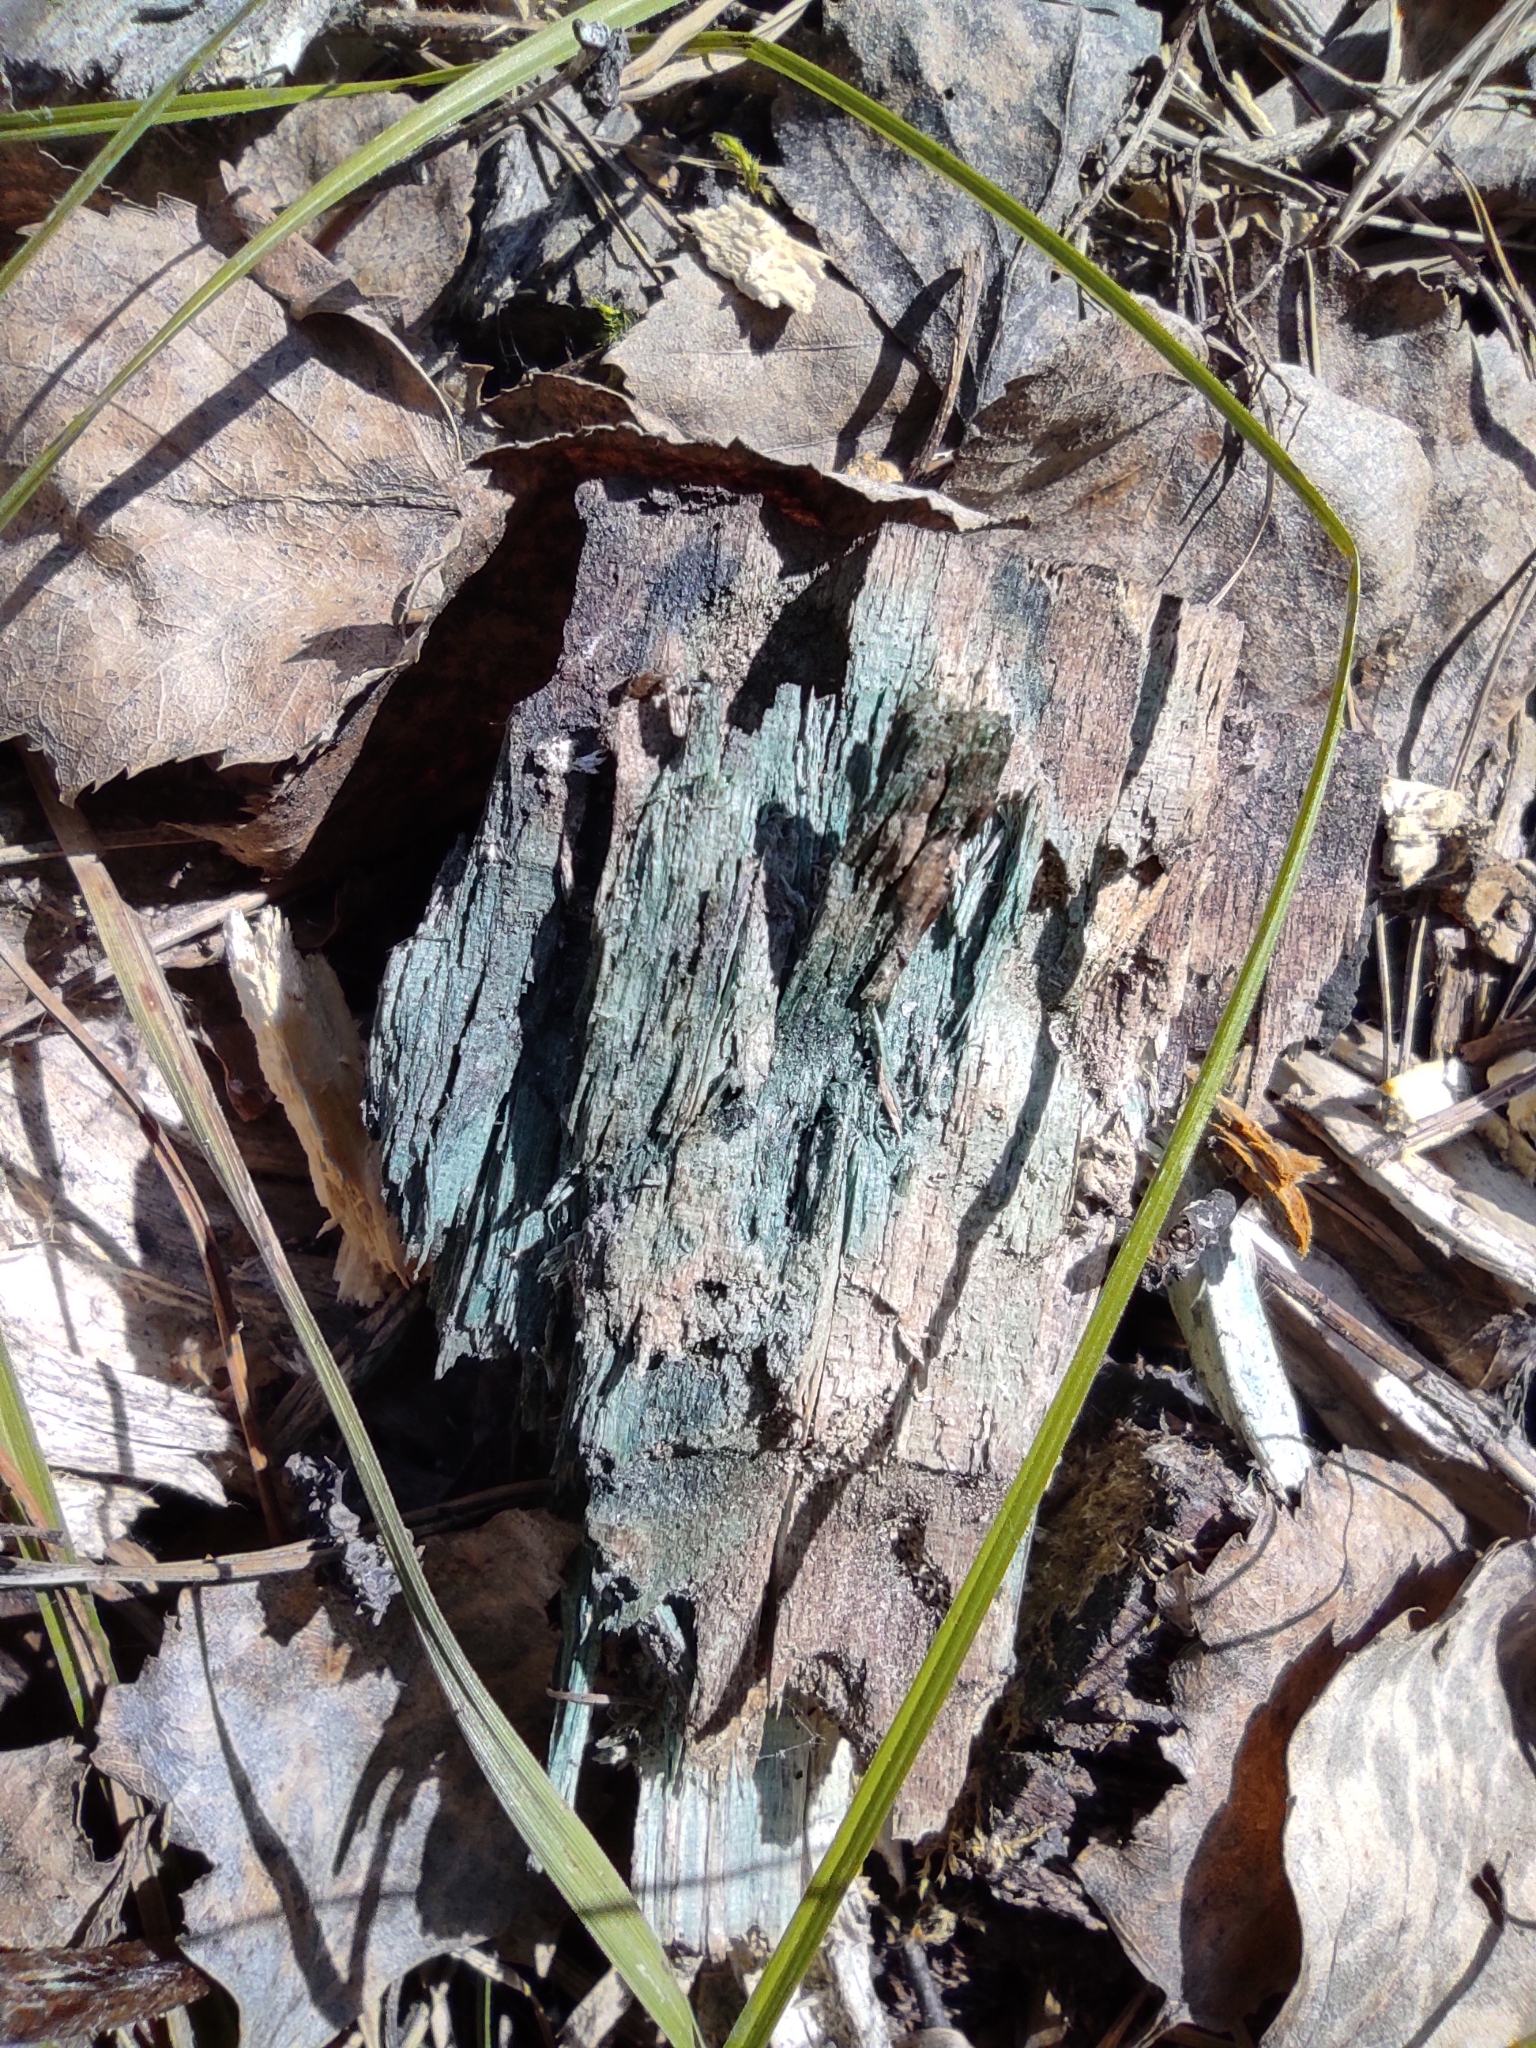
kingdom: Fungi
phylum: Ascomycota
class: Leotiomycetes
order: Helotiales
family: Chlorociboriaceae
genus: Chlorociboria
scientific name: Chlorociboria
